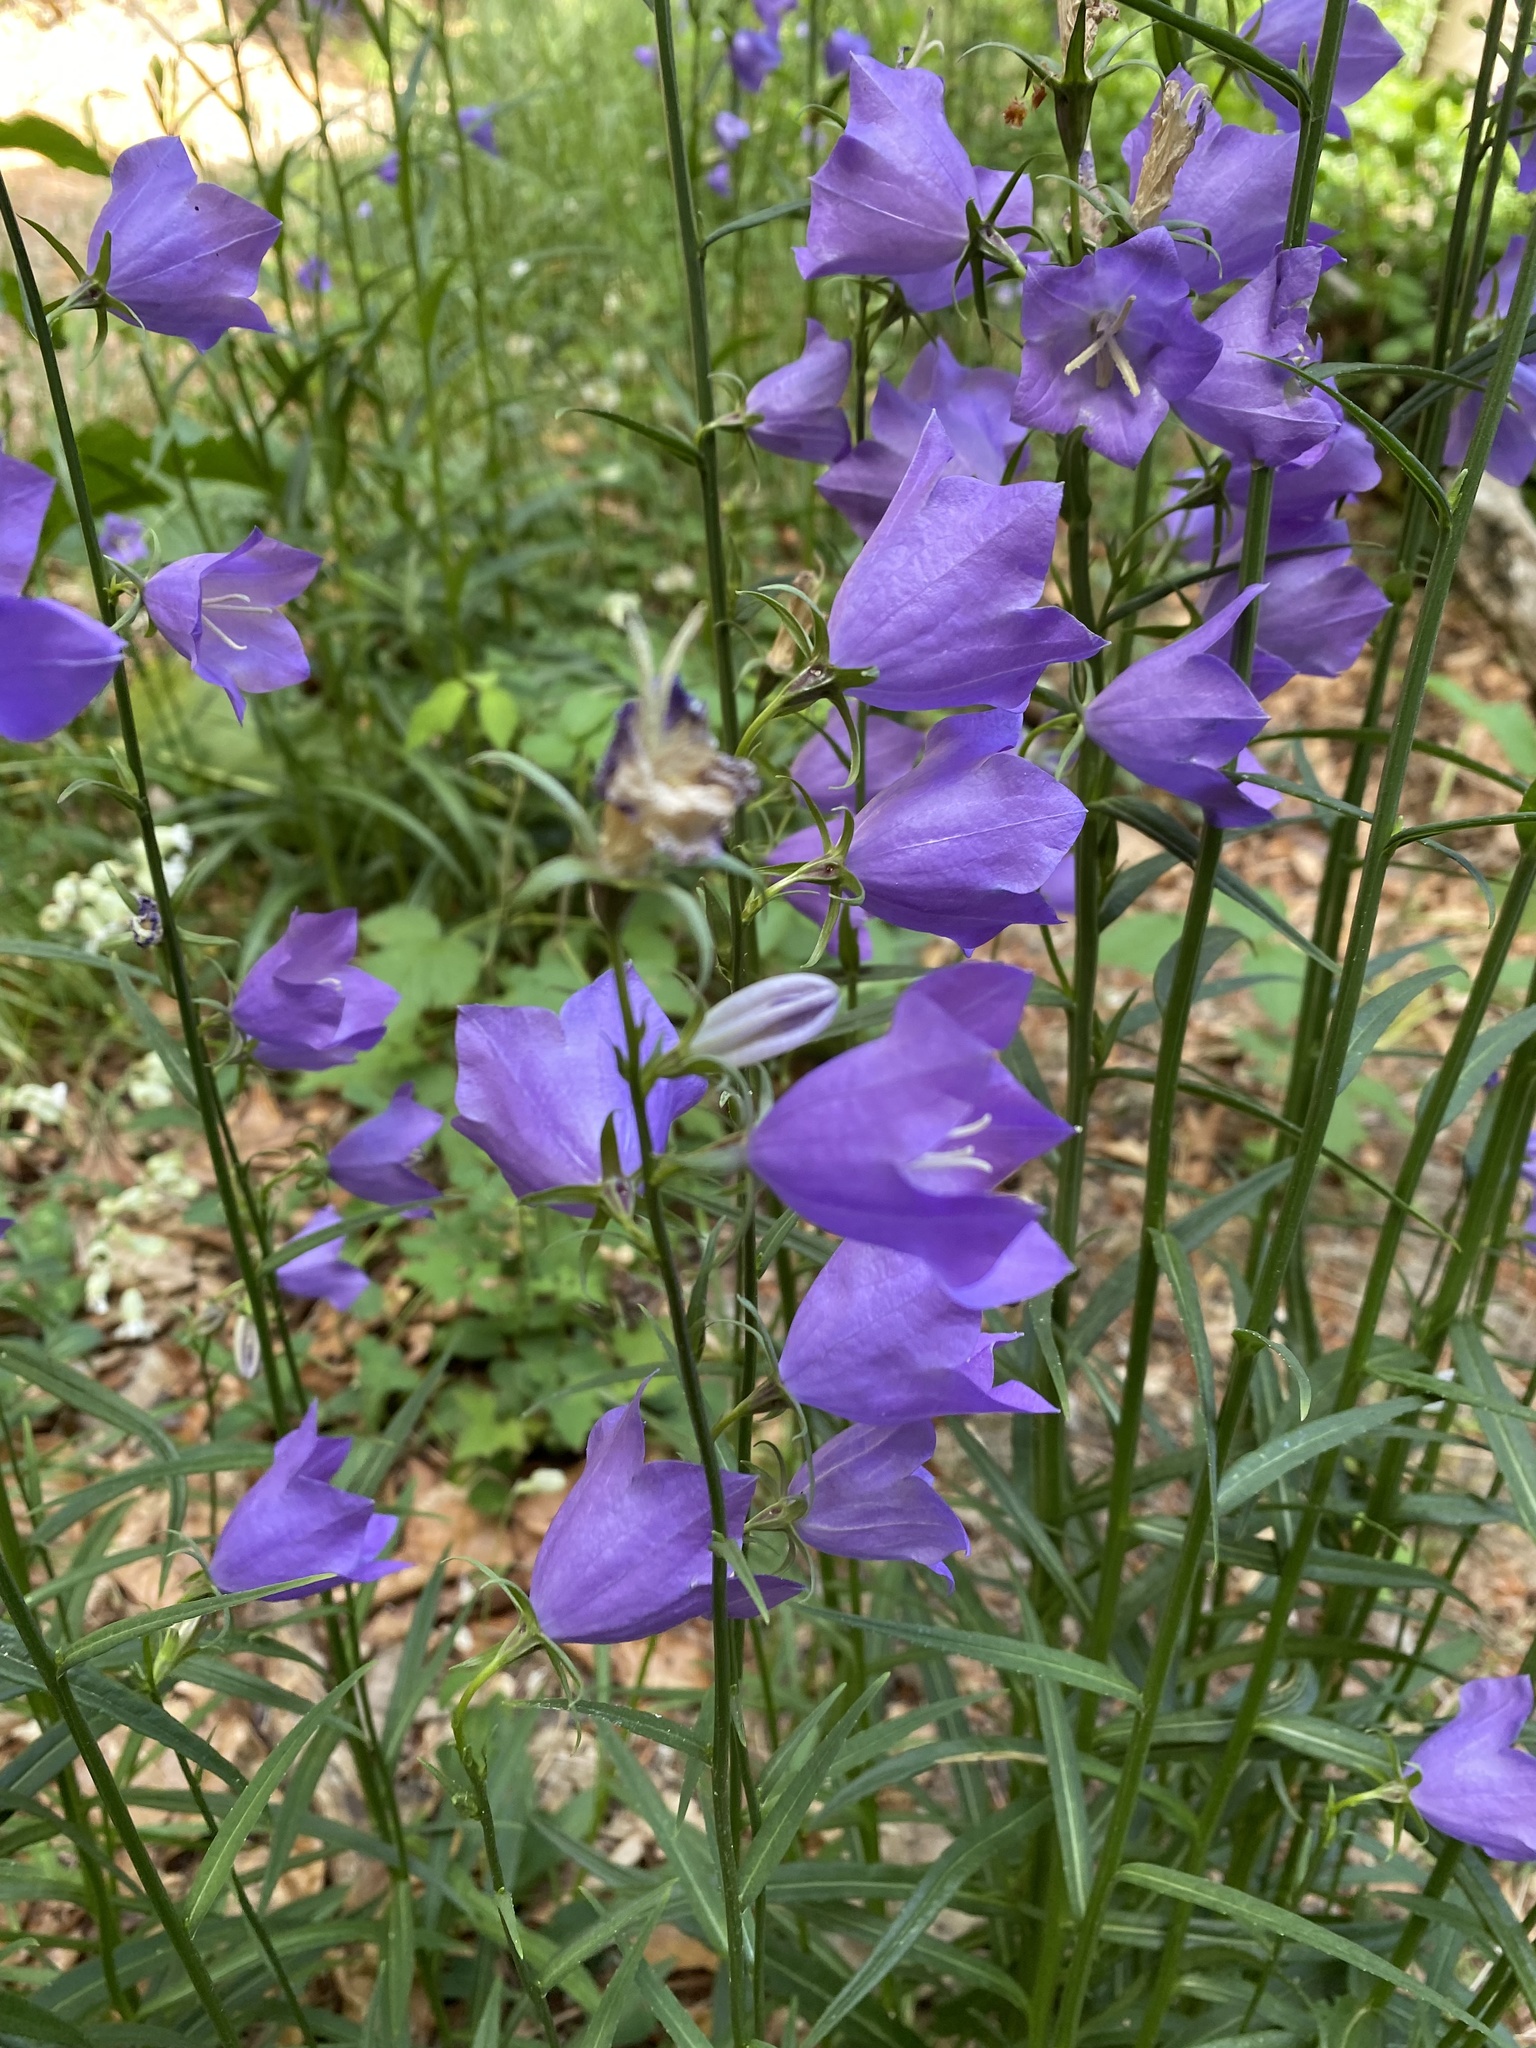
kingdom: Plantae
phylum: Tracheophyta
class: Magnoliopsida
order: Asterales
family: Campanulaceae
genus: Campanula
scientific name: Campanula persicifolia
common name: Peach-leaved bellflower
